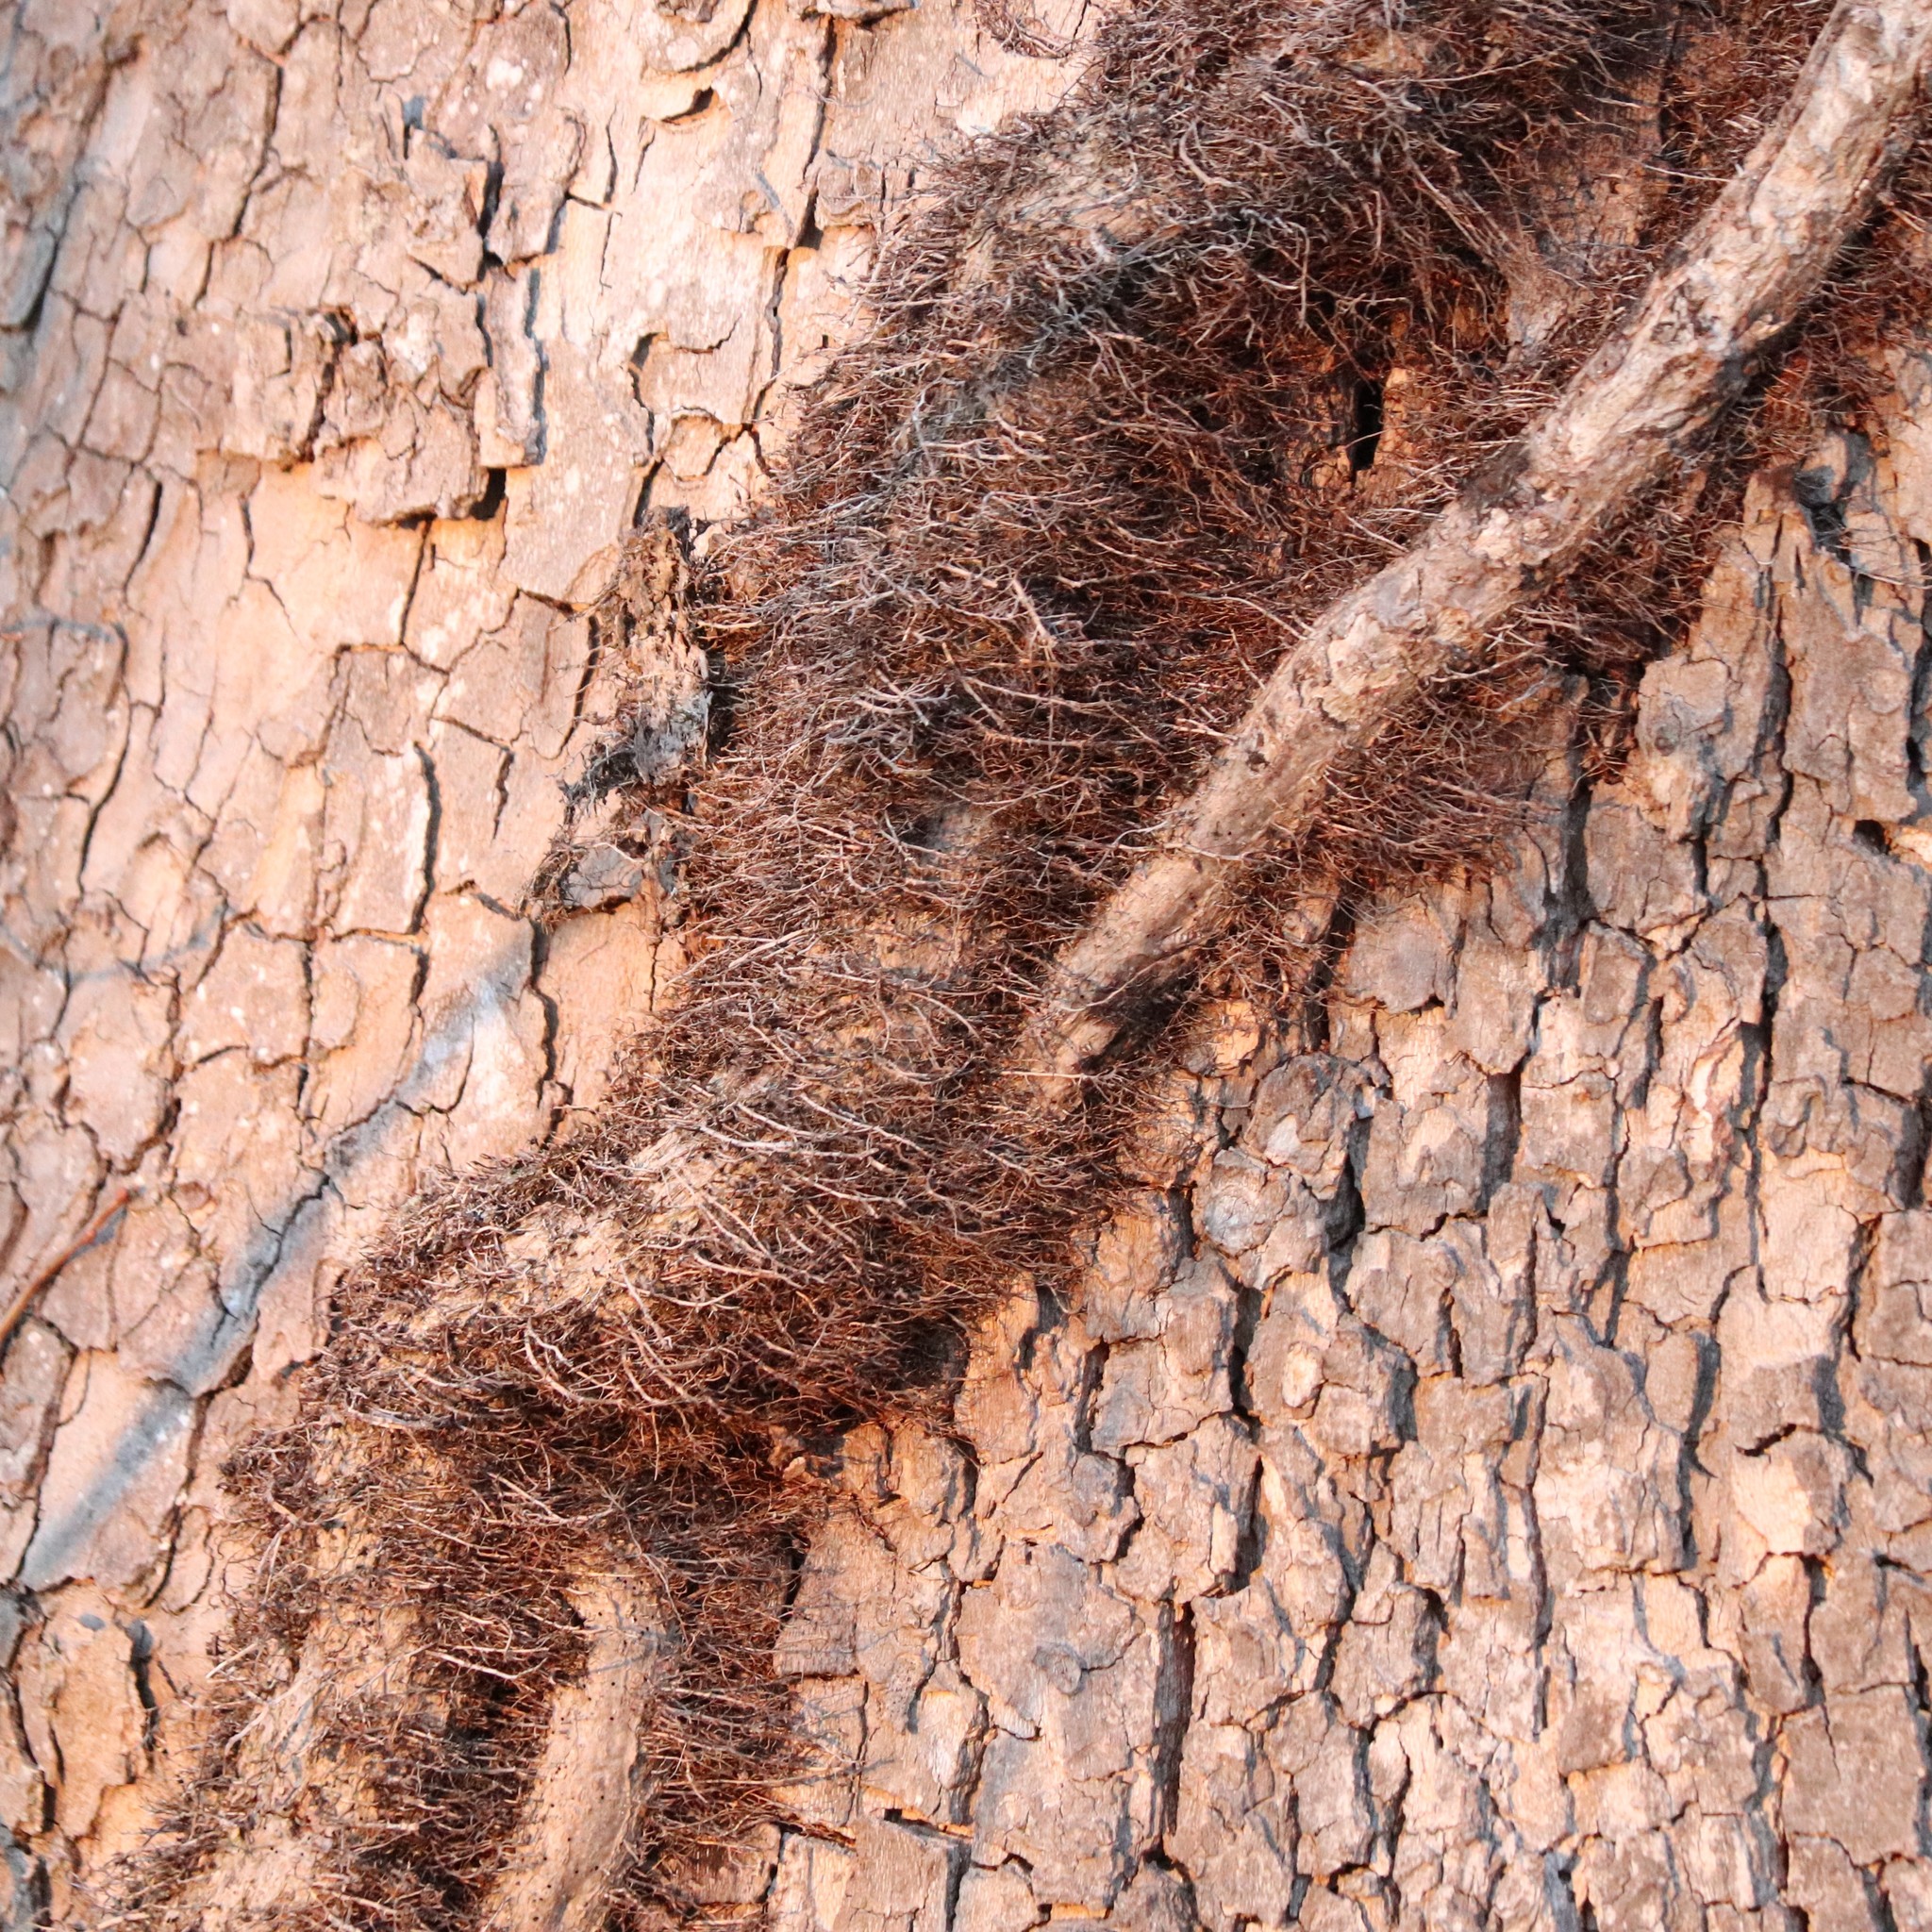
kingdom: Plantae
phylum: Tracheophyta
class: Magnoliopsida
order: Sapindales
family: Anacardiaceae
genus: Toxicodendron
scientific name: Toxicodendron radicans
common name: Poison ivy
